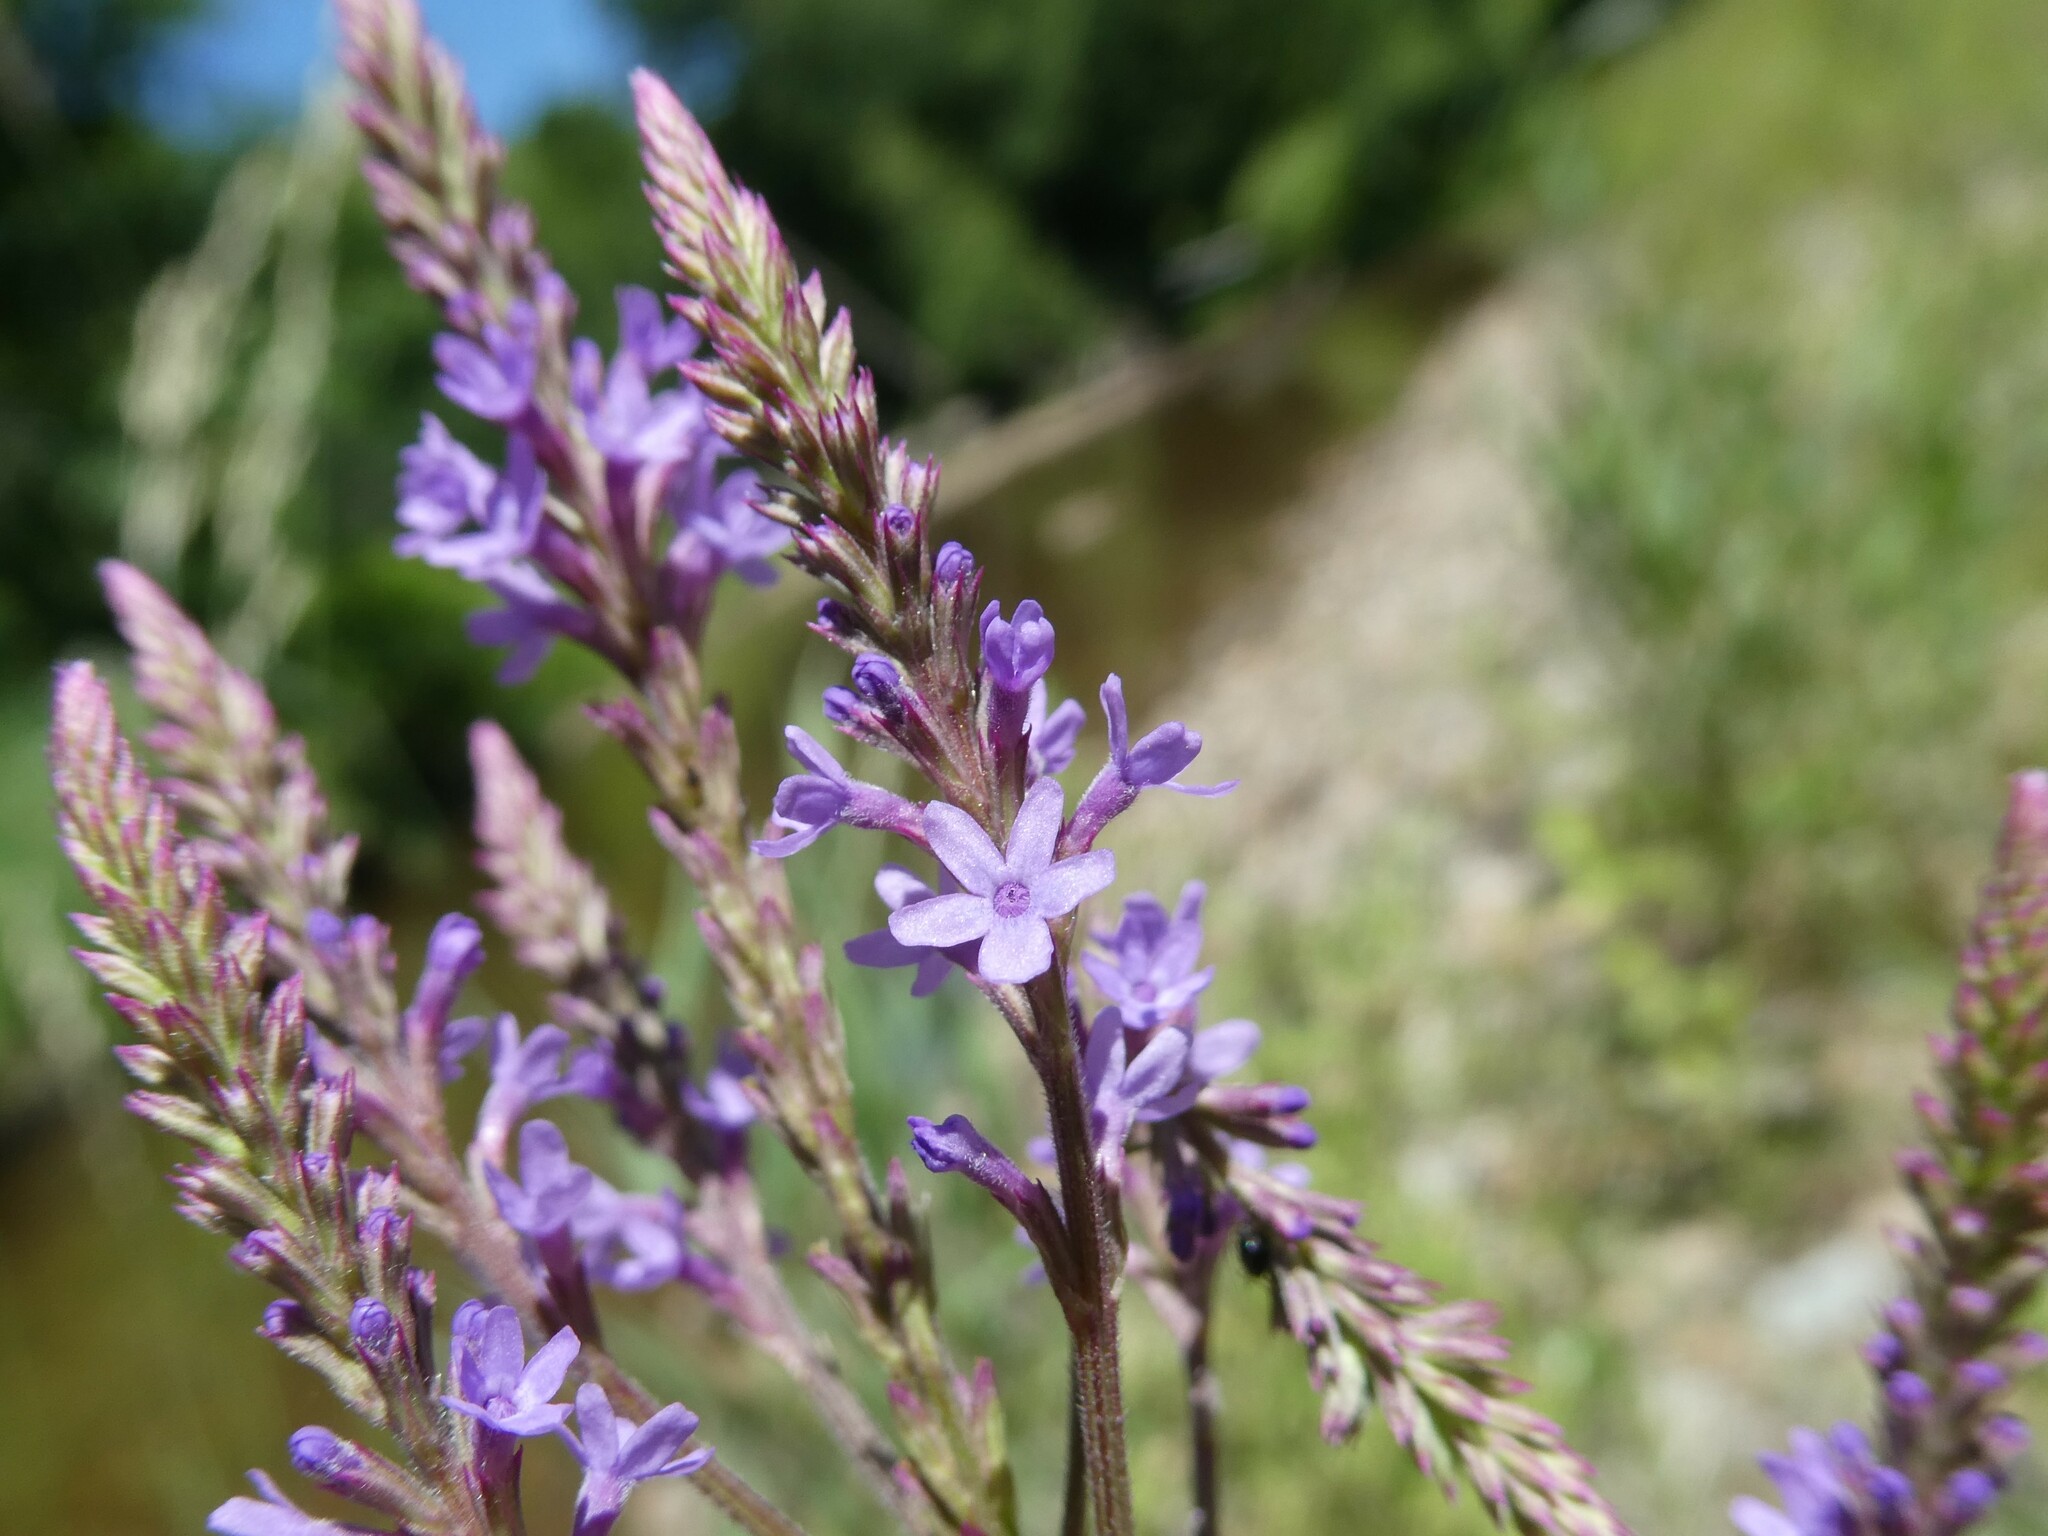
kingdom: Plantae
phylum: Tracheophyta
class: Magnoliopsida
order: Lamiales
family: Verbenaceae
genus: Verbena
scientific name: Verbena hastata
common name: American blue vervain
